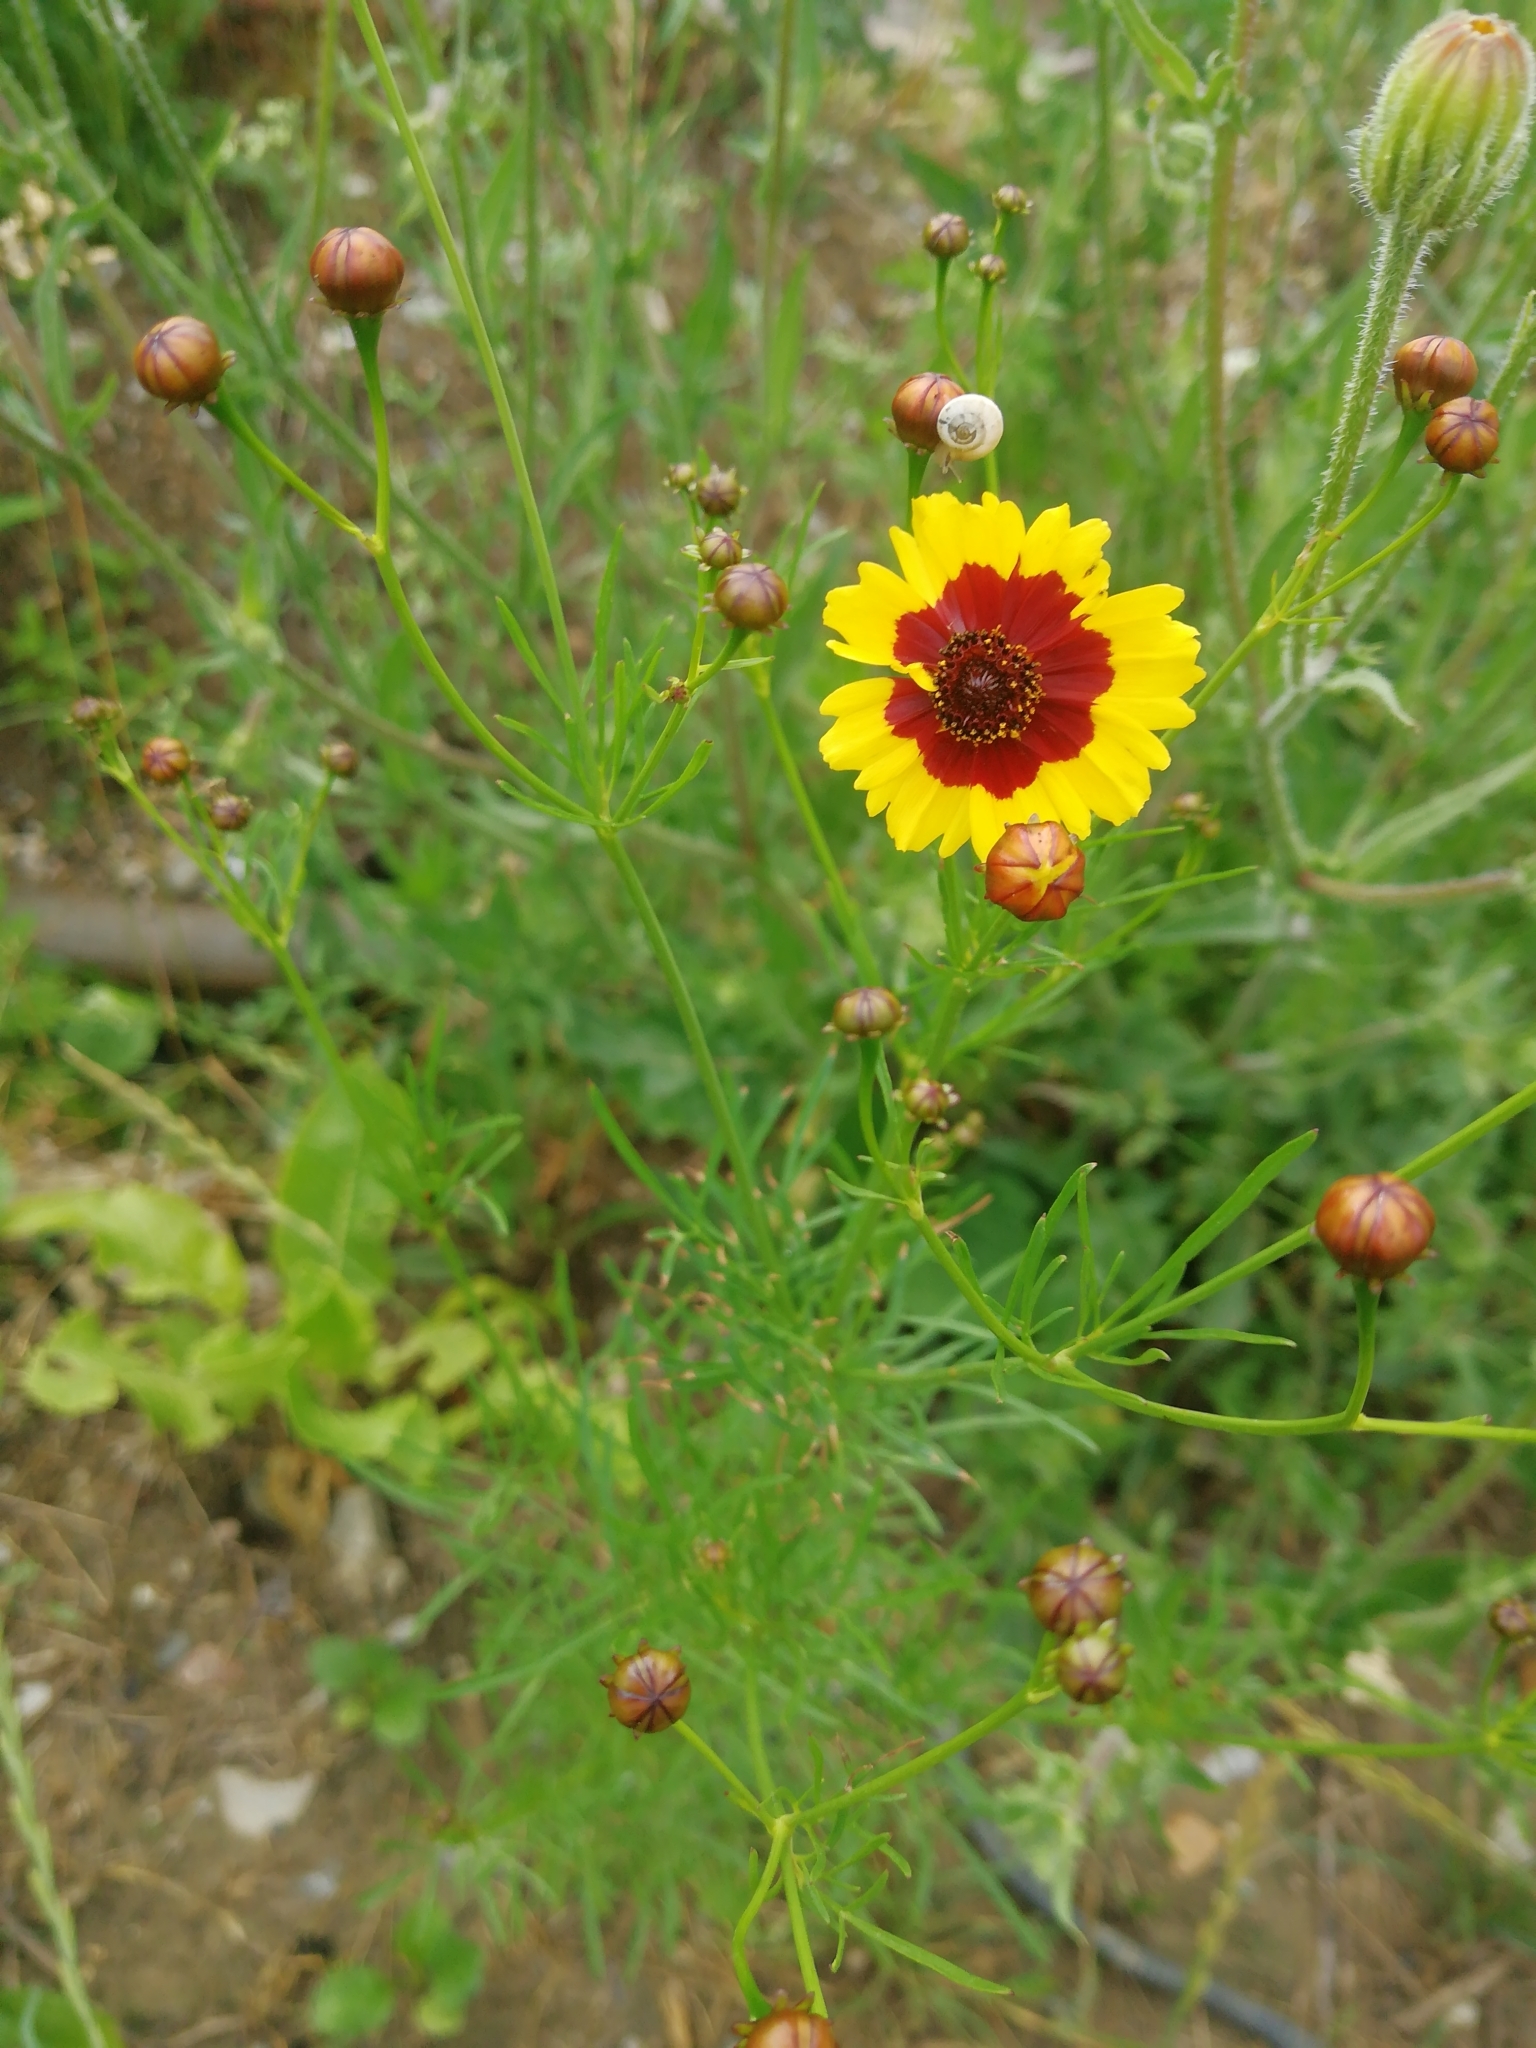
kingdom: Plantae
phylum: Tracheophyta
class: Magnoliopsida
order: Asterales
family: Asteraceae
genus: Coreopsis
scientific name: Coreopsis tinctoria
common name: Garden tickseed
